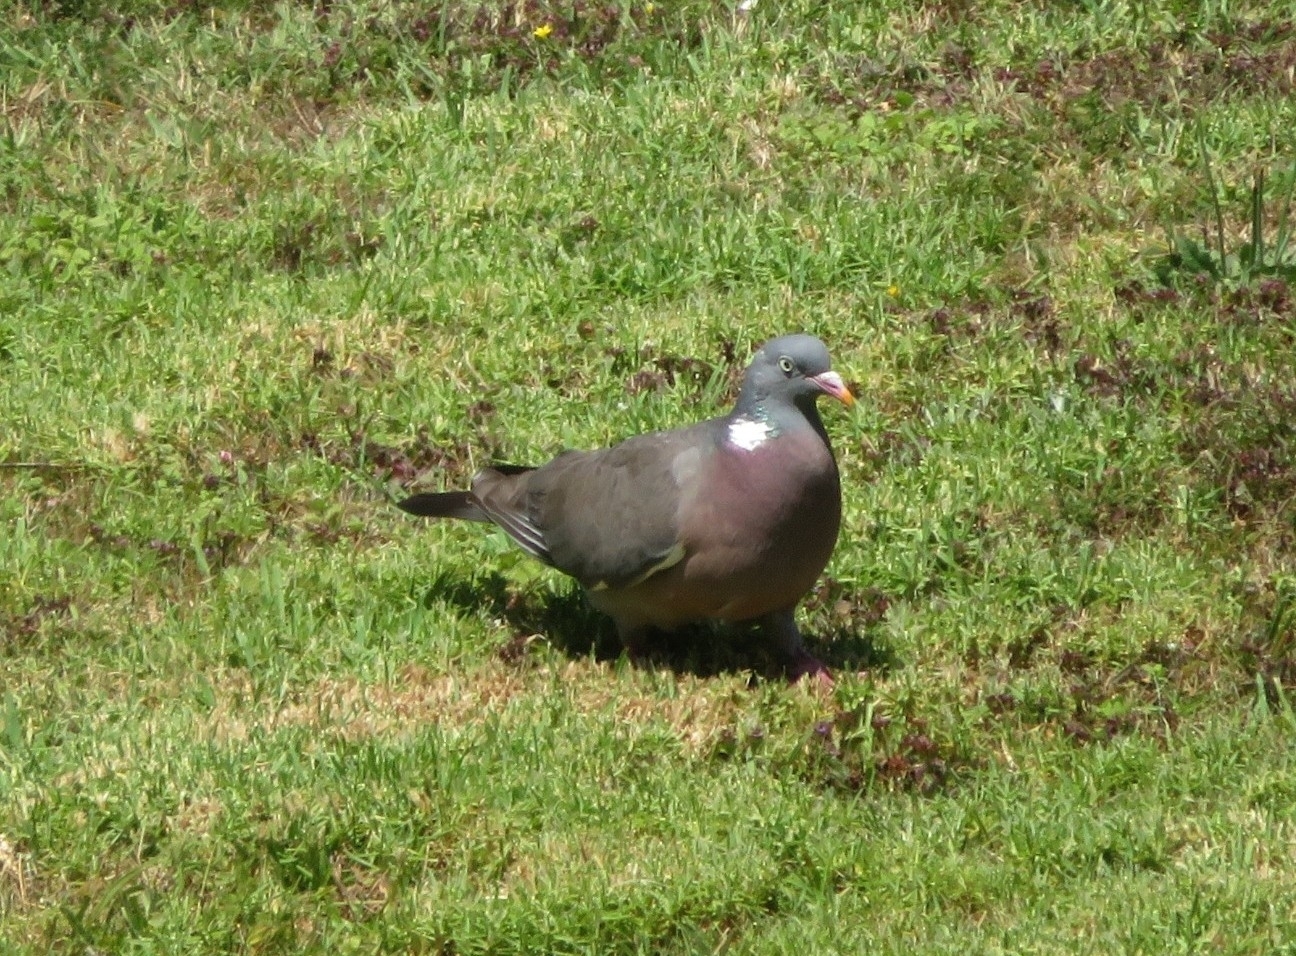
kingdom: Animalia
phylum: Chordata
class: Aves
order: Columbiformes
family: Columbidae
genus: Columba
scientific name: Columba palumbus
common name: Common wood pigeon
